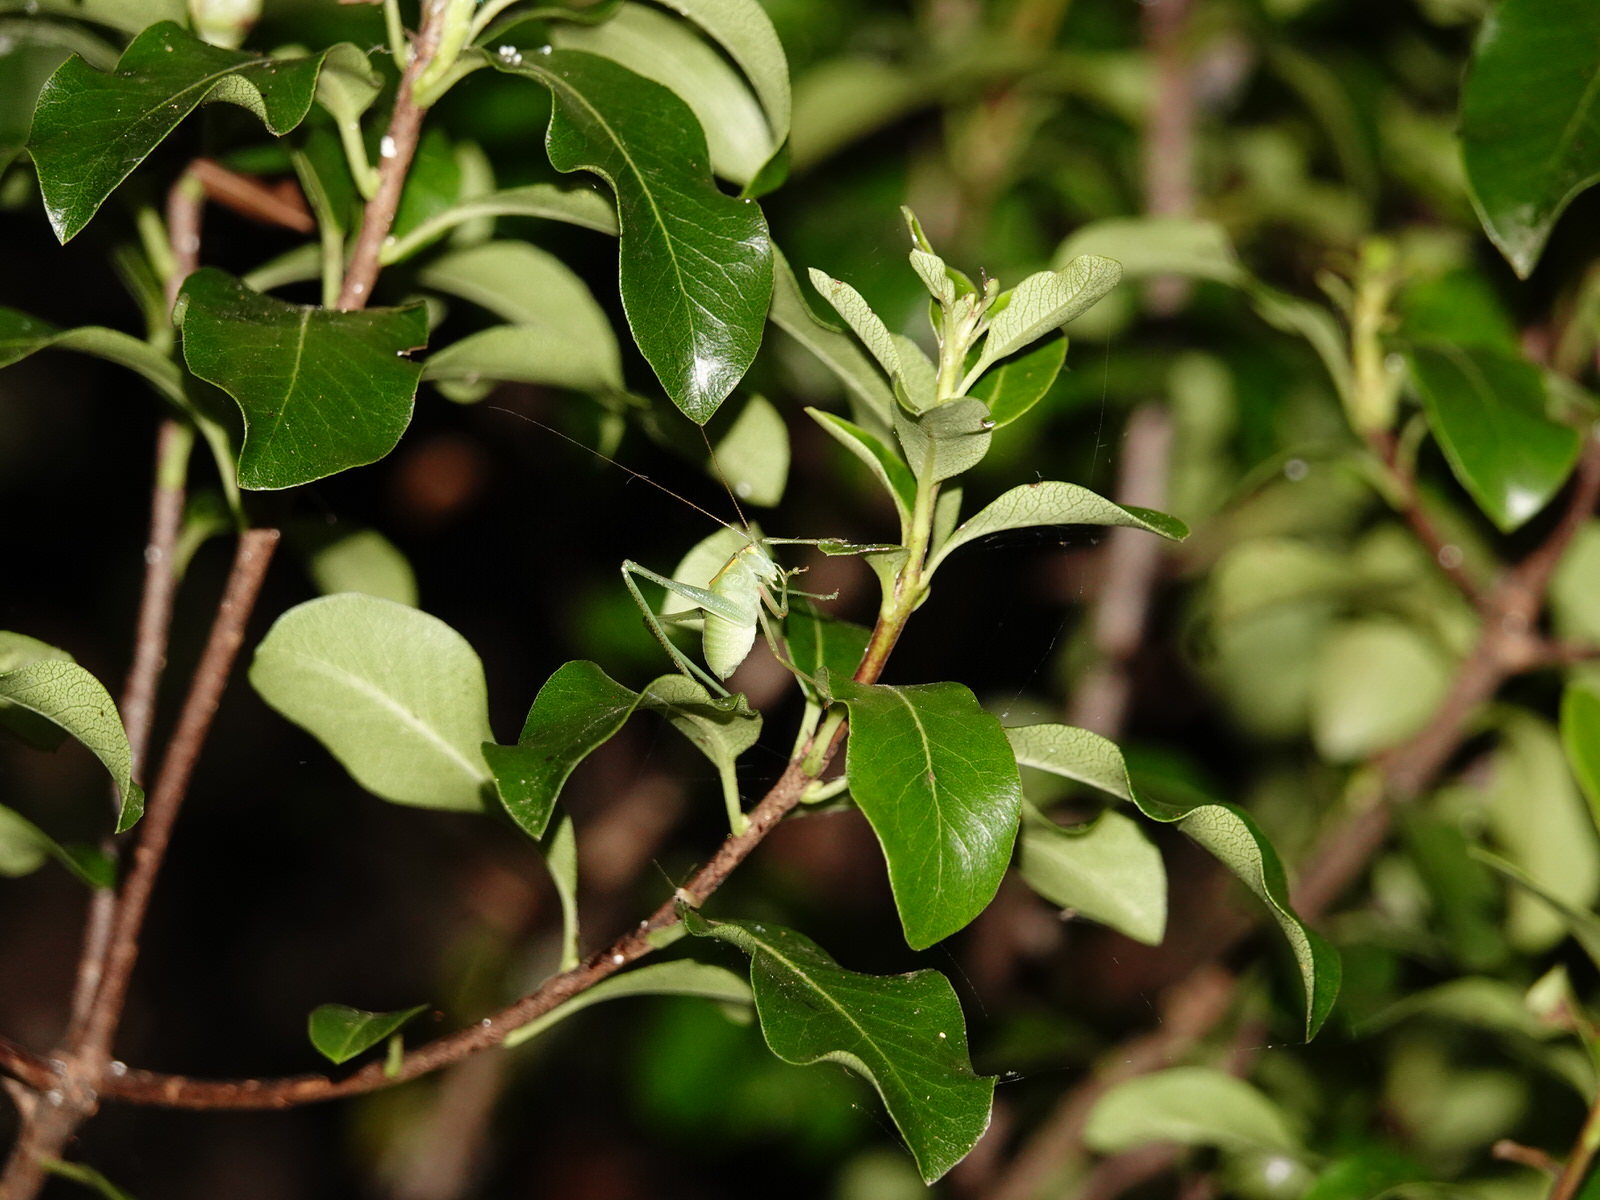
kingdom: Animalia
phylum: Arthropoda
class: Insecta
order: Orthoptera
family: Tettigoniidae
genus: Caedicia
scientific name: Caedicia simplex
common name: Common garden katydid
